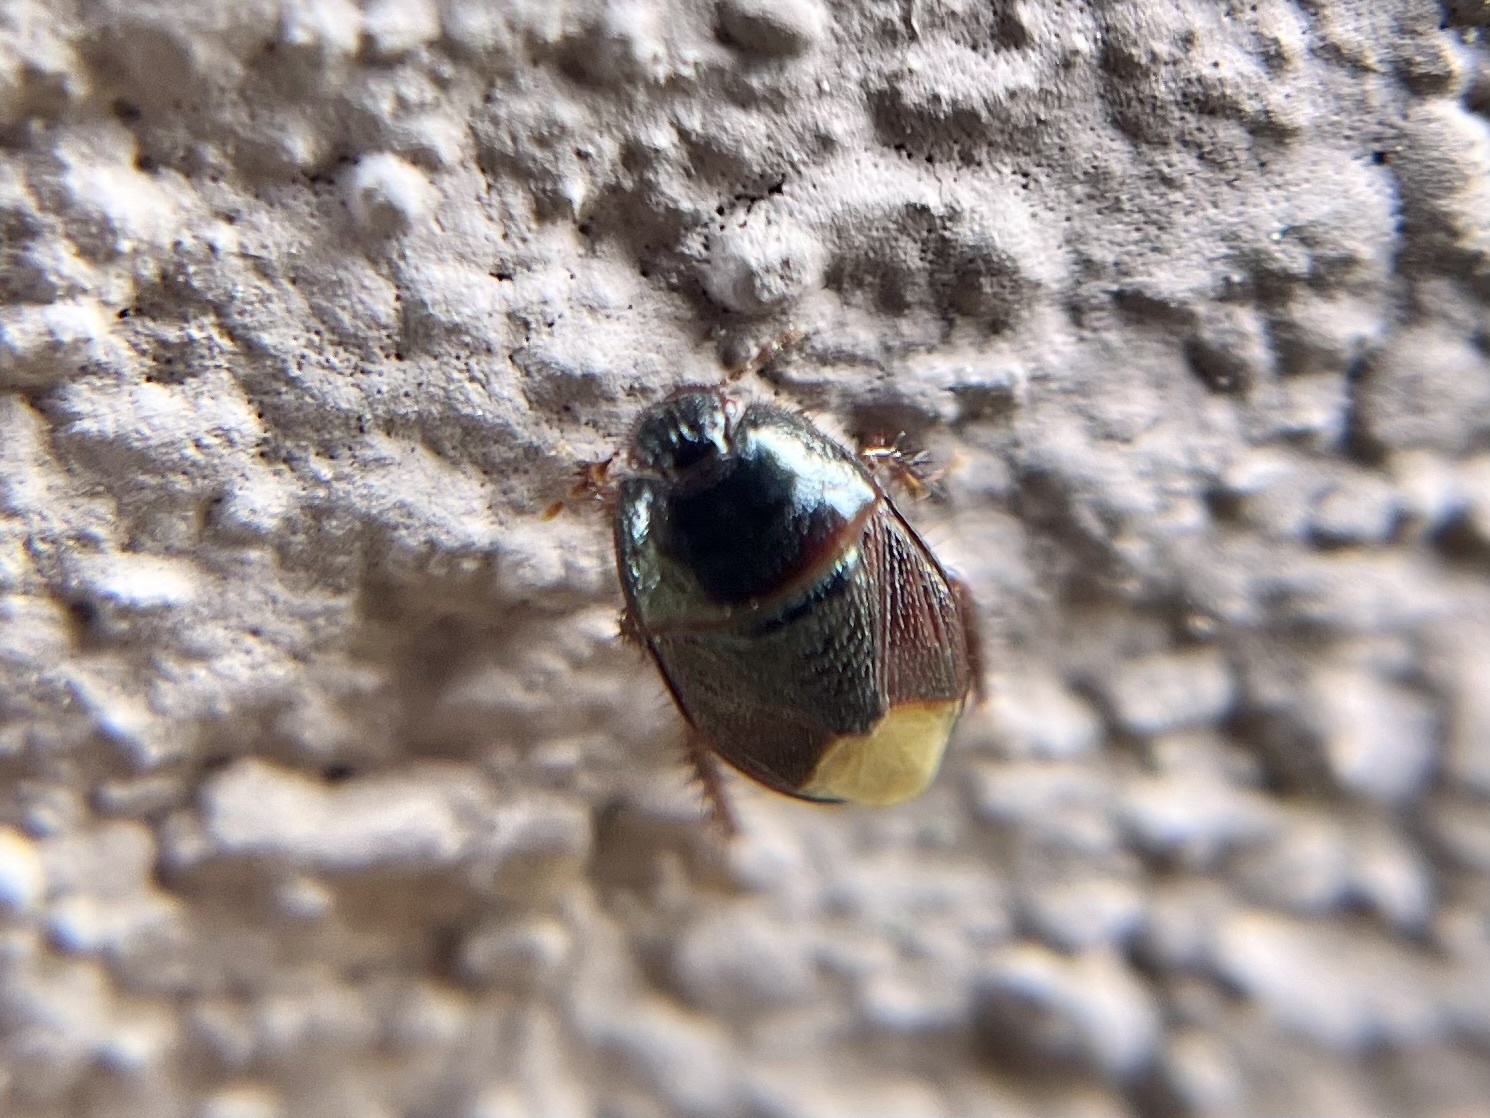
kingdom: Animalia
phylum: Arthropoda
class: Insecta
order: Hemiptera
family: Cydnidae
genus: Microporus
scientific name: Microporus nigrita
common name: Burrower bug
